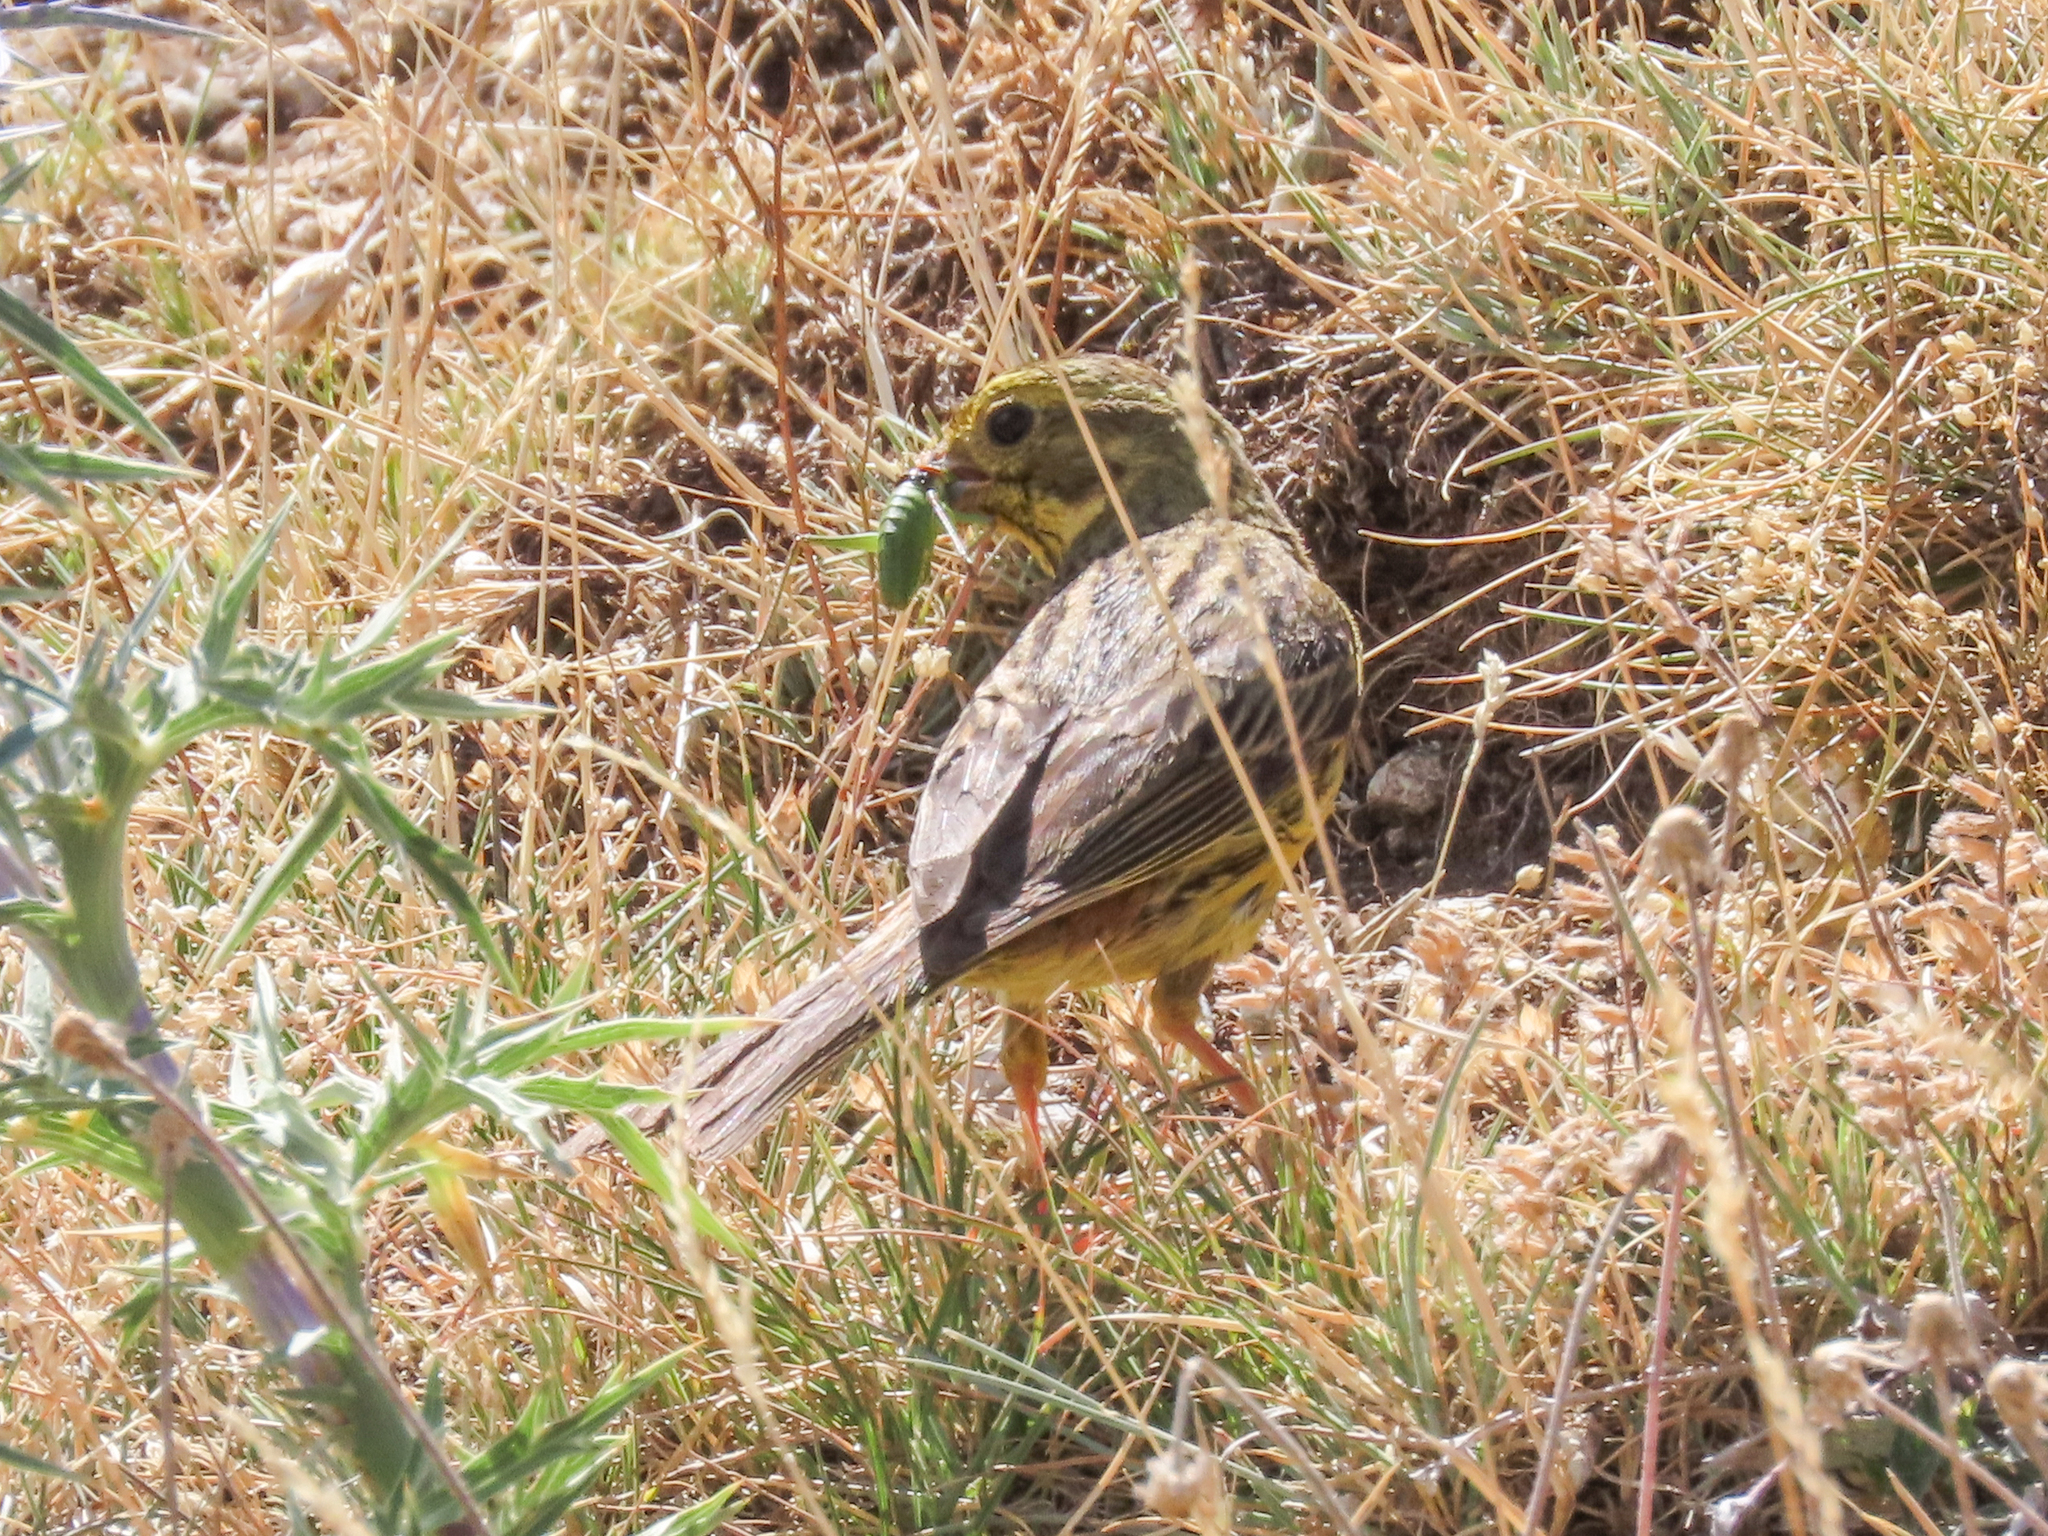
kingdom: Animalia
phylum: Chordata
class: Aves
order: Passeriformes
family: Emberizidae
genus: Emberiza
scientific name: Emberiza citrinella
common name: Yellowhammer
